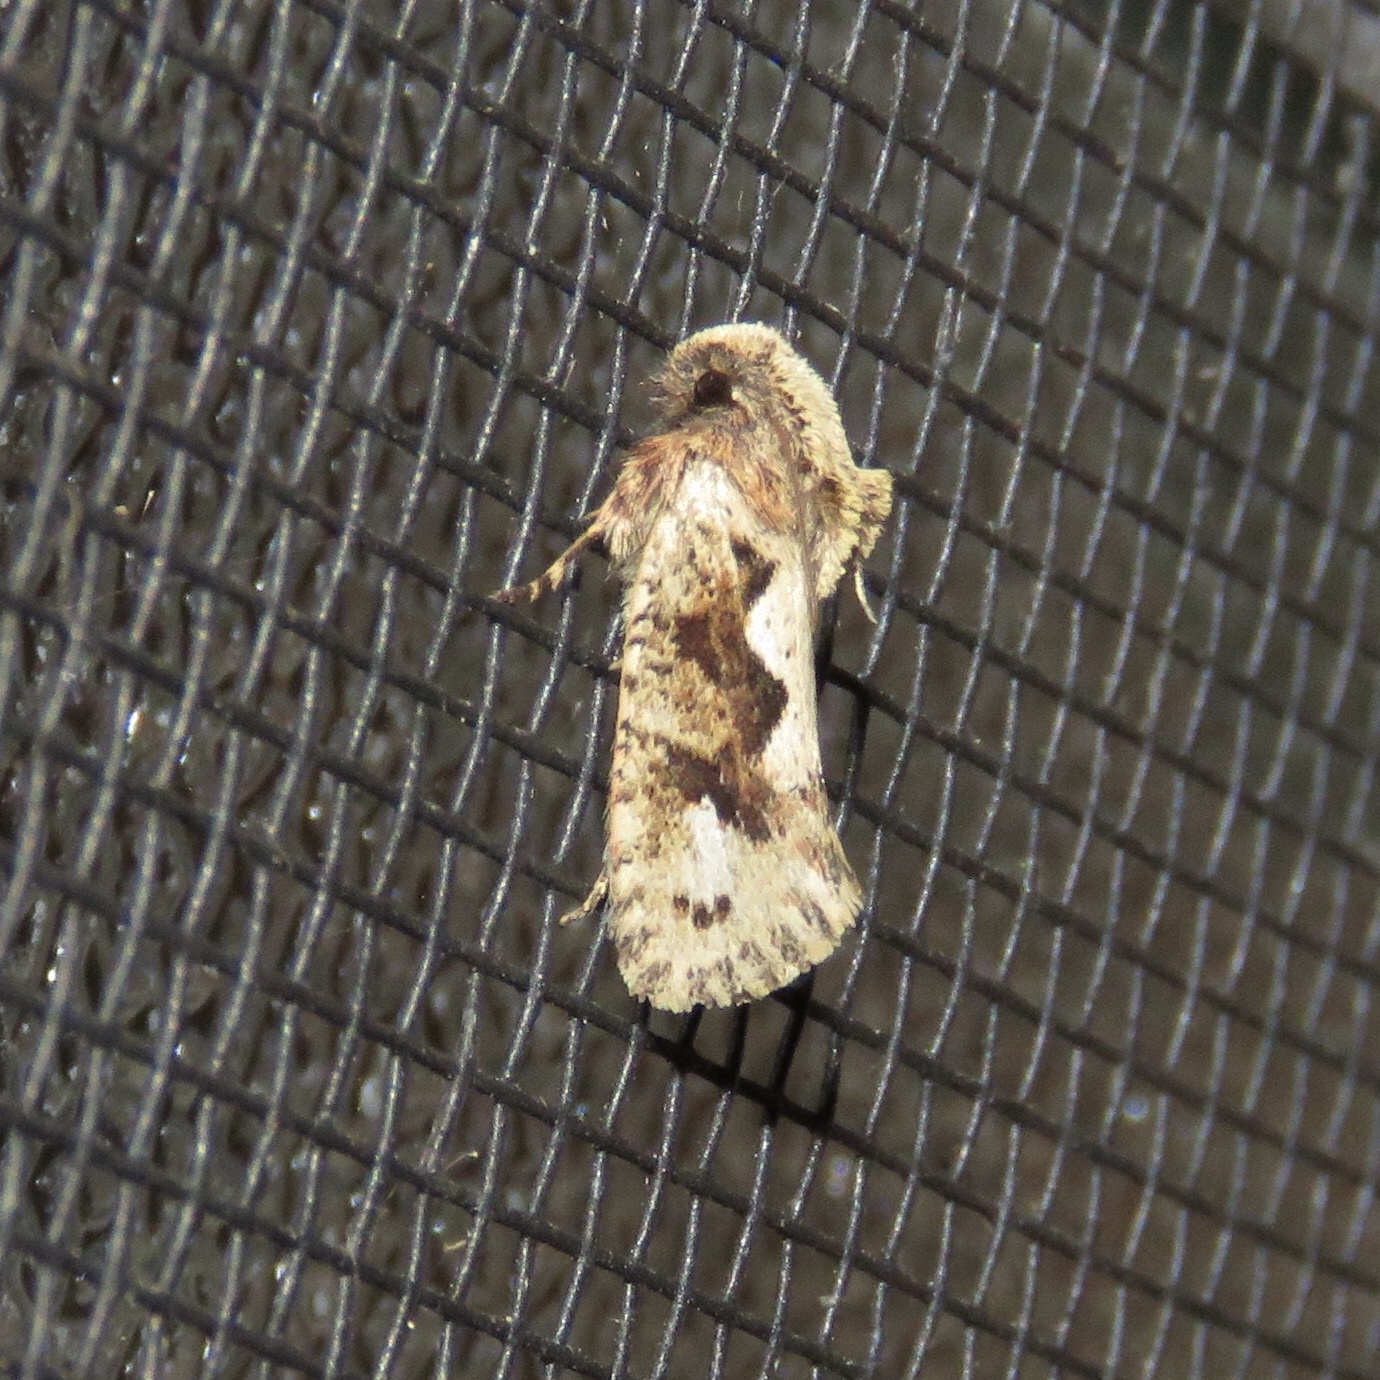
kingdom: Animalia
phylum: Arthropoda
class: Insecta
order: Lepidoptera
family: Tineidae
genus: Acrolophus
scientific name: Acrolophus walsinghami
